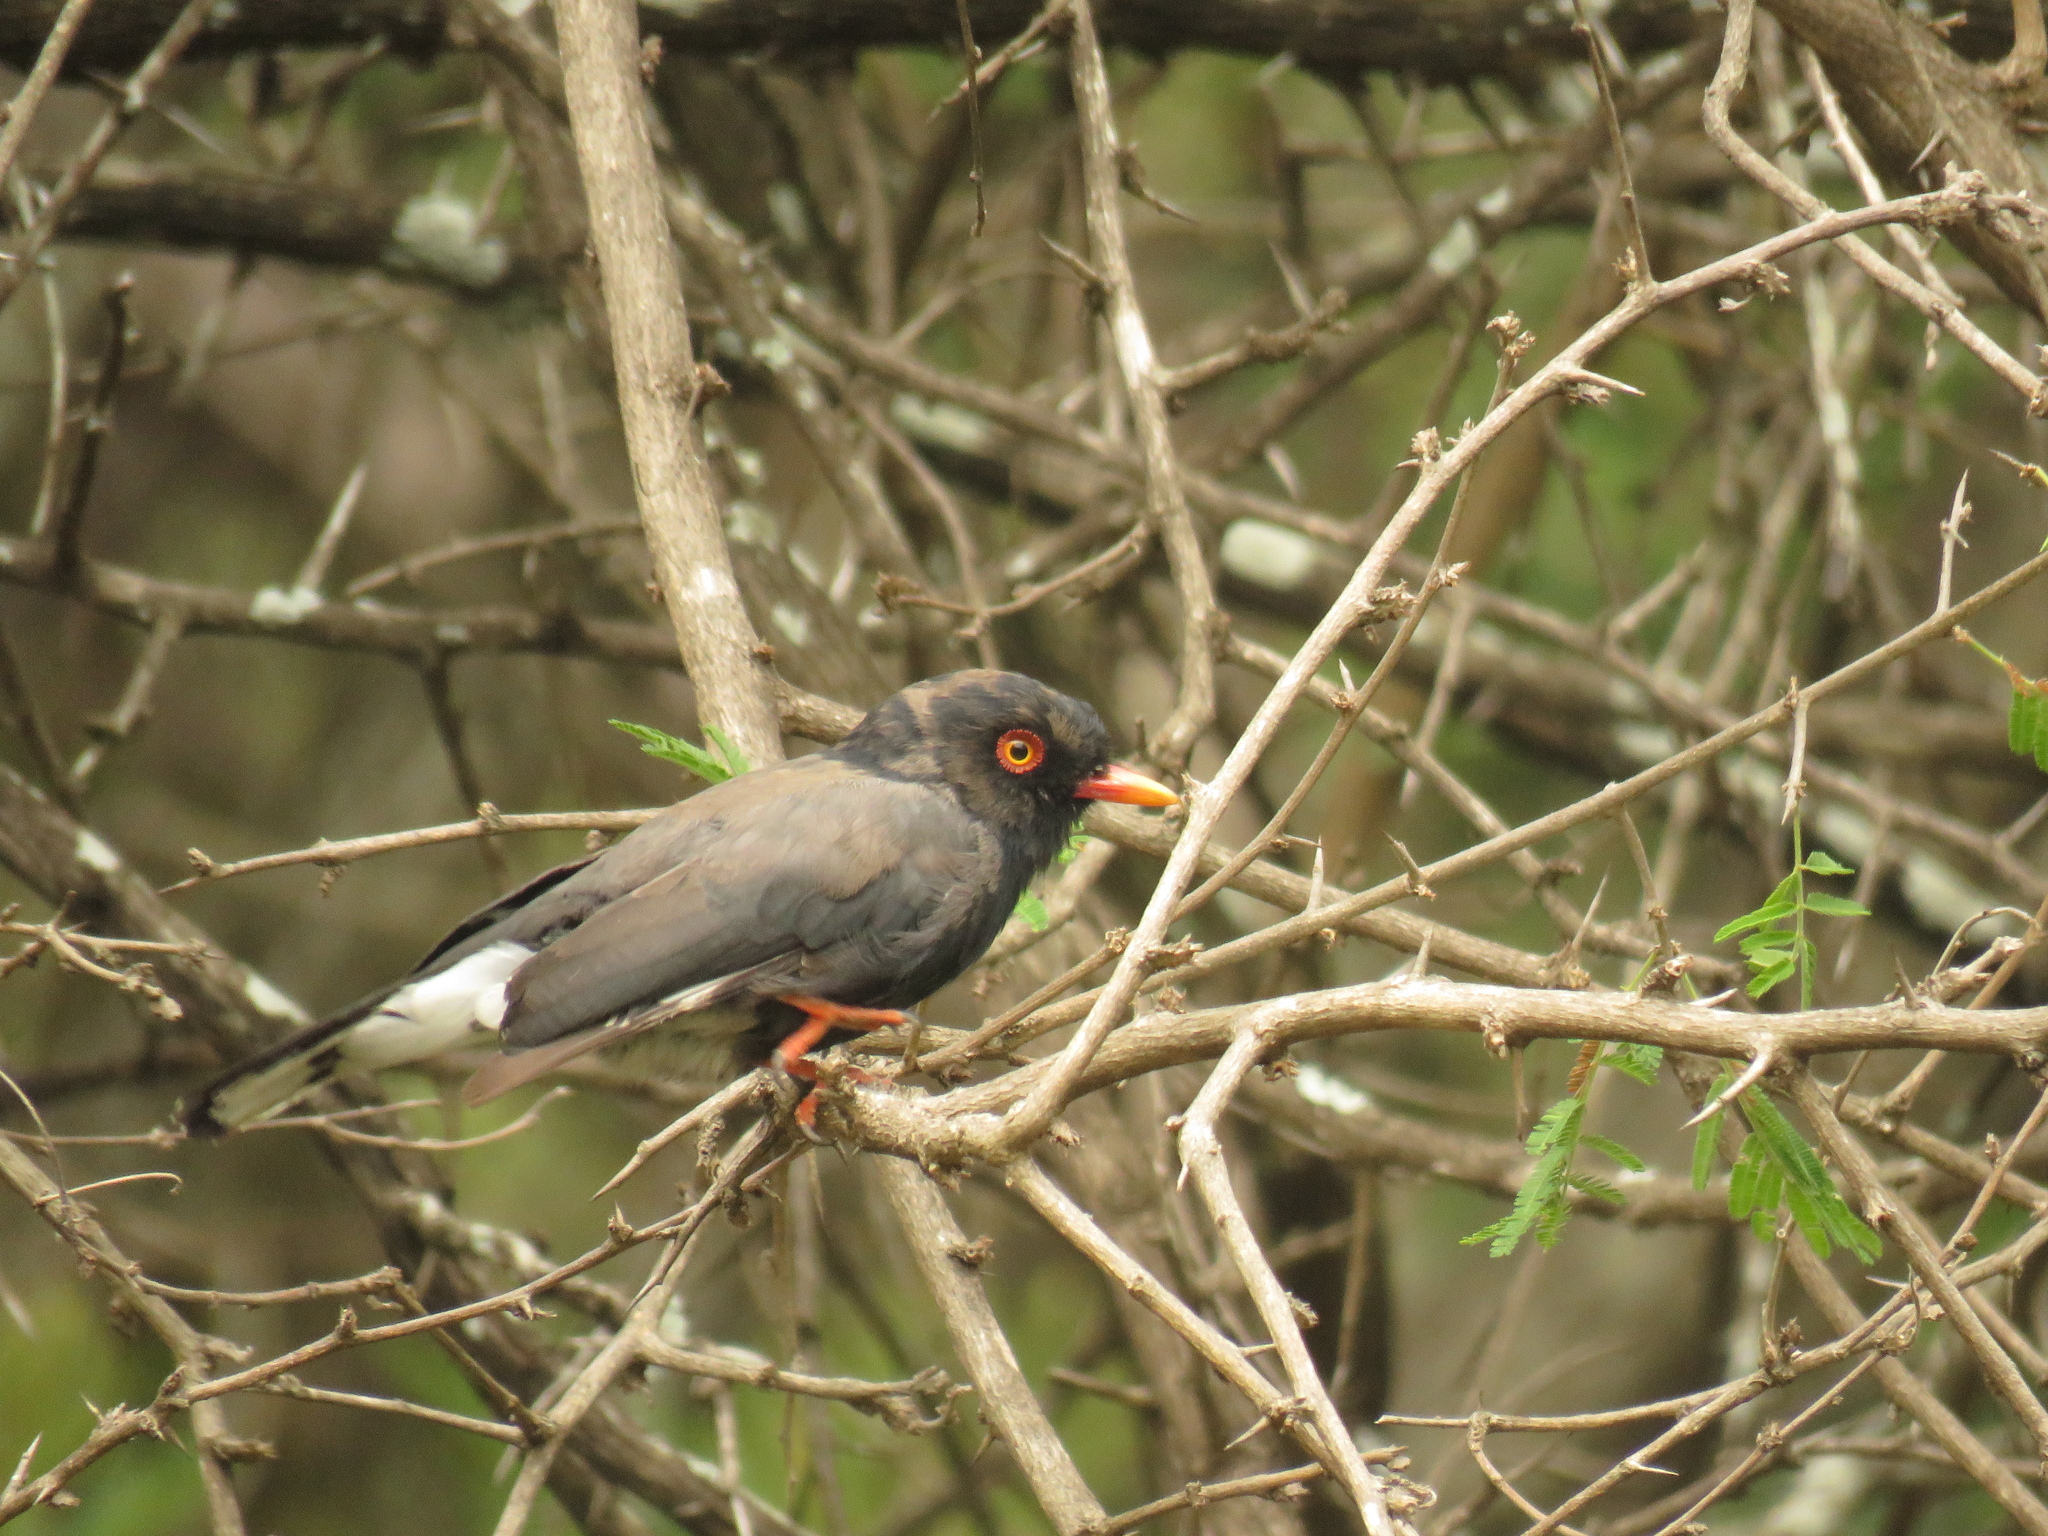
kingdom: Animalia
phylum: Chordata
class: Aves
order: Passeriformes
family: Prionopidae
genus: Prionops
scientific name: Prionops retzii
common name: Retz's helmetshrike
